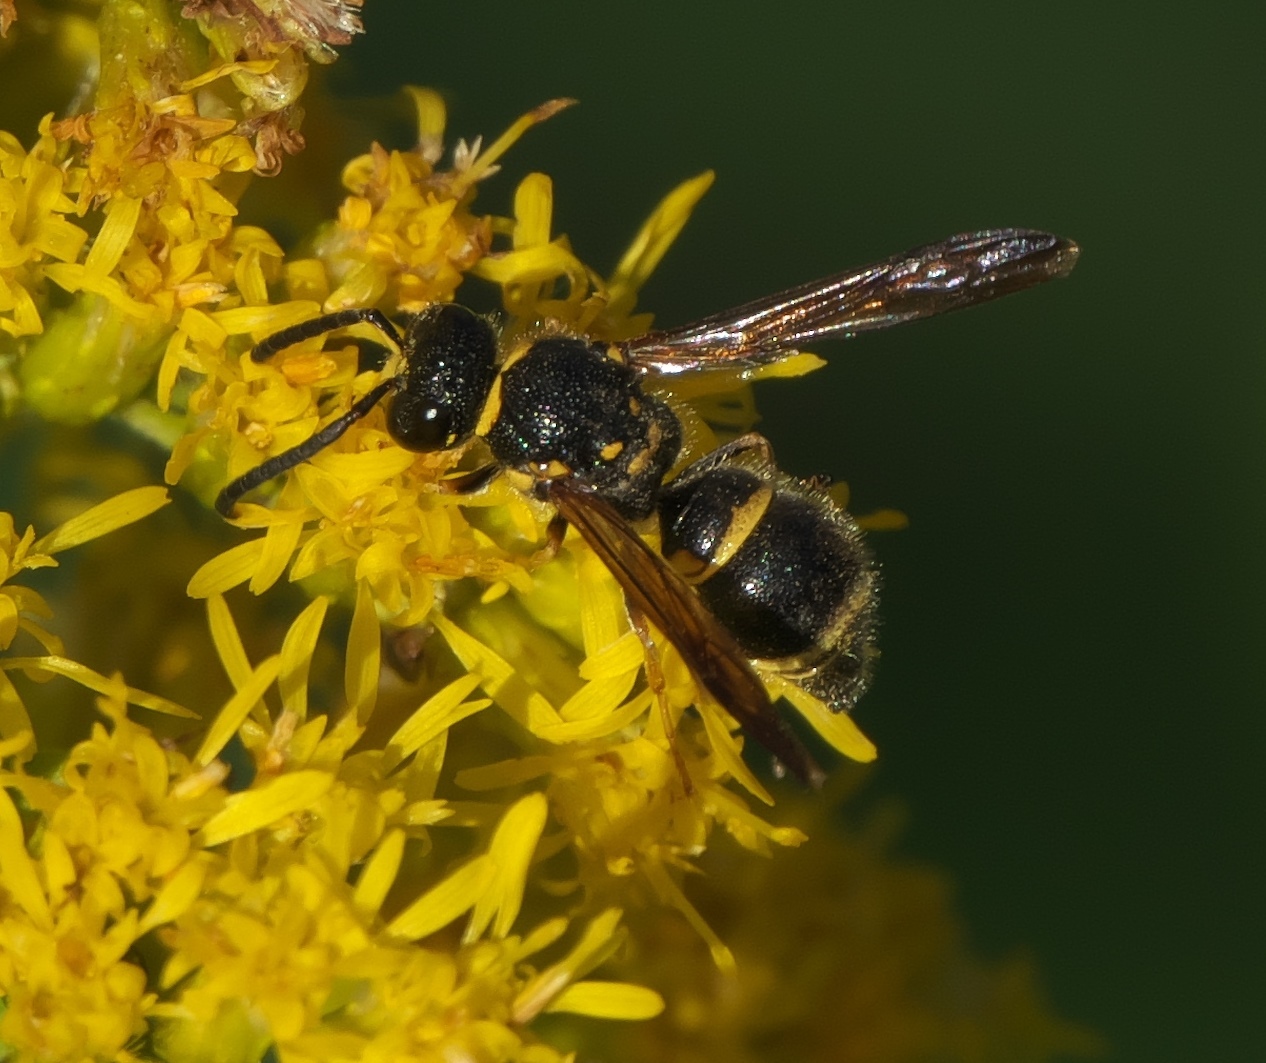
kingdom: Animalia
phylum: Arthropoda
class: Insecta
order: Hymenoptera
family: Vespidae
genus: Ancistrocerus
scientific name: Ancistrocerus campestris
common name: Smiling mason wasp
